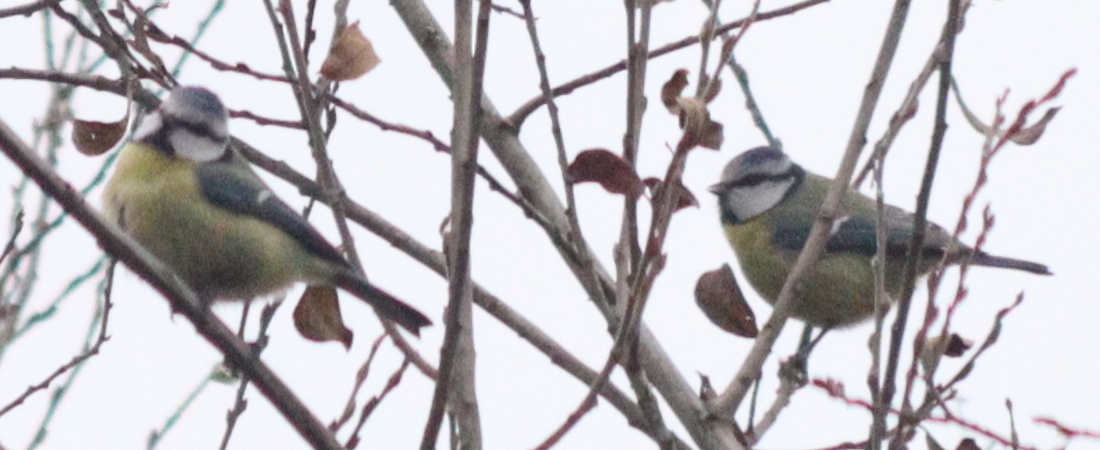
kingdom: Animalia
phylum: Chordata
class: Aves
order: Passeriformes
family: Paridae
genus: Cyanistes
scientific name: Cyanistes caeruleus
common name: Eurasian blue tit
